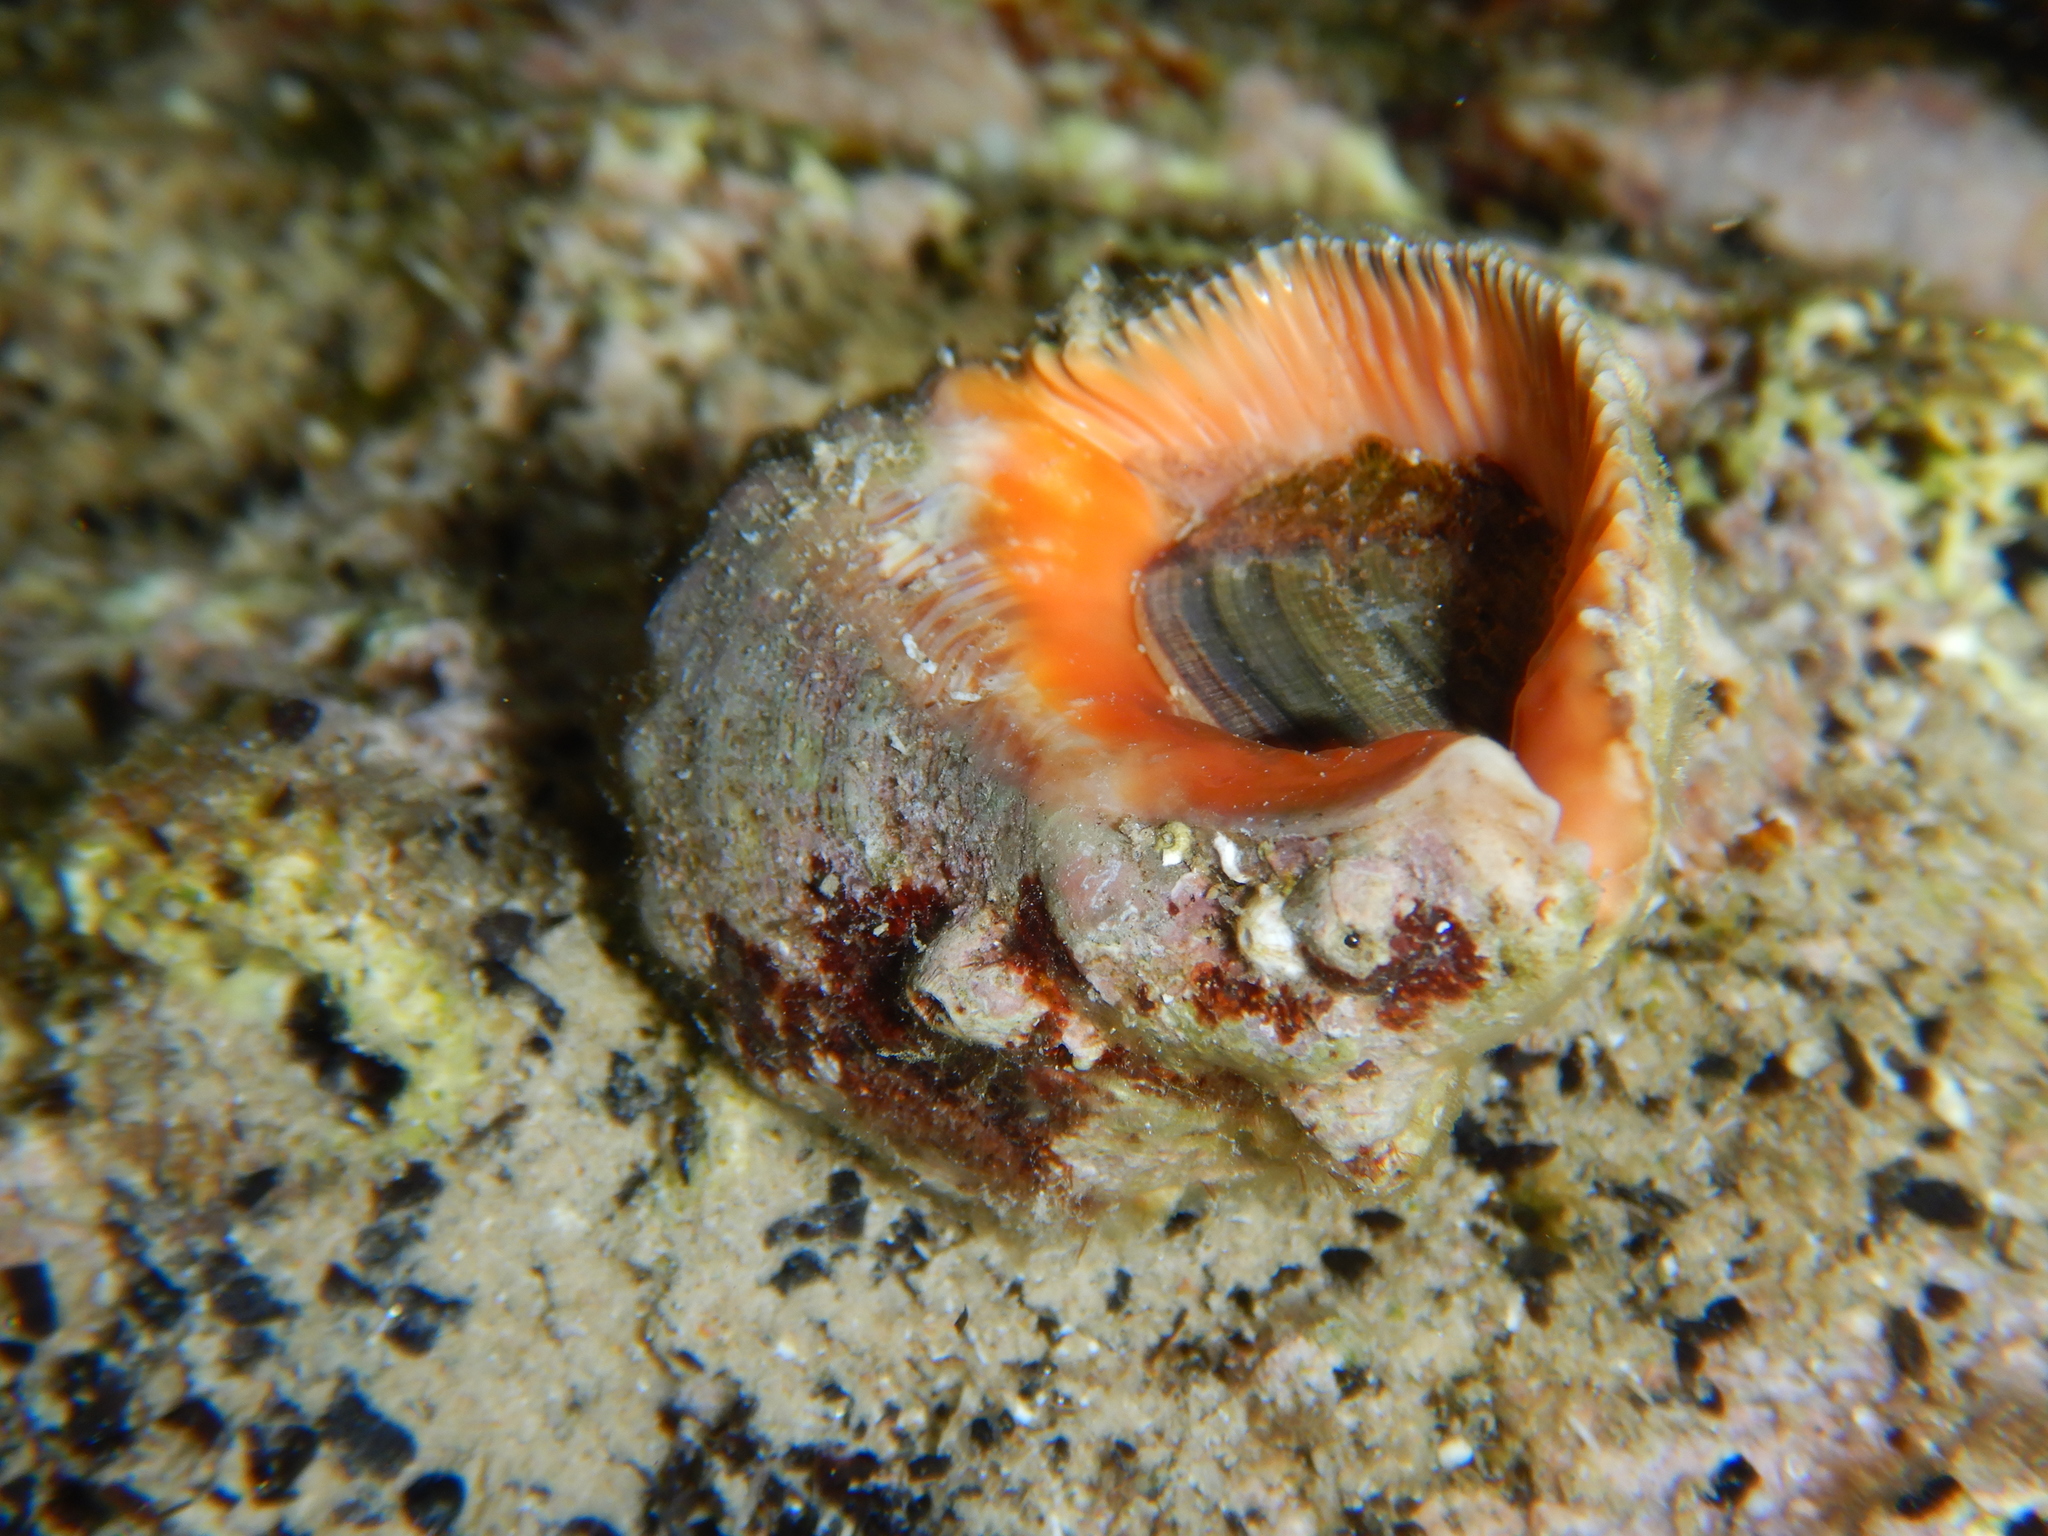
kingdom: Animalia
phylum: Mollusca
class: Gastropoda
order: Neogastropoda
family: Muricidae
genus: Stramonita
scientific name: Stramonita haemastoma
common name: Florida dog winkle
